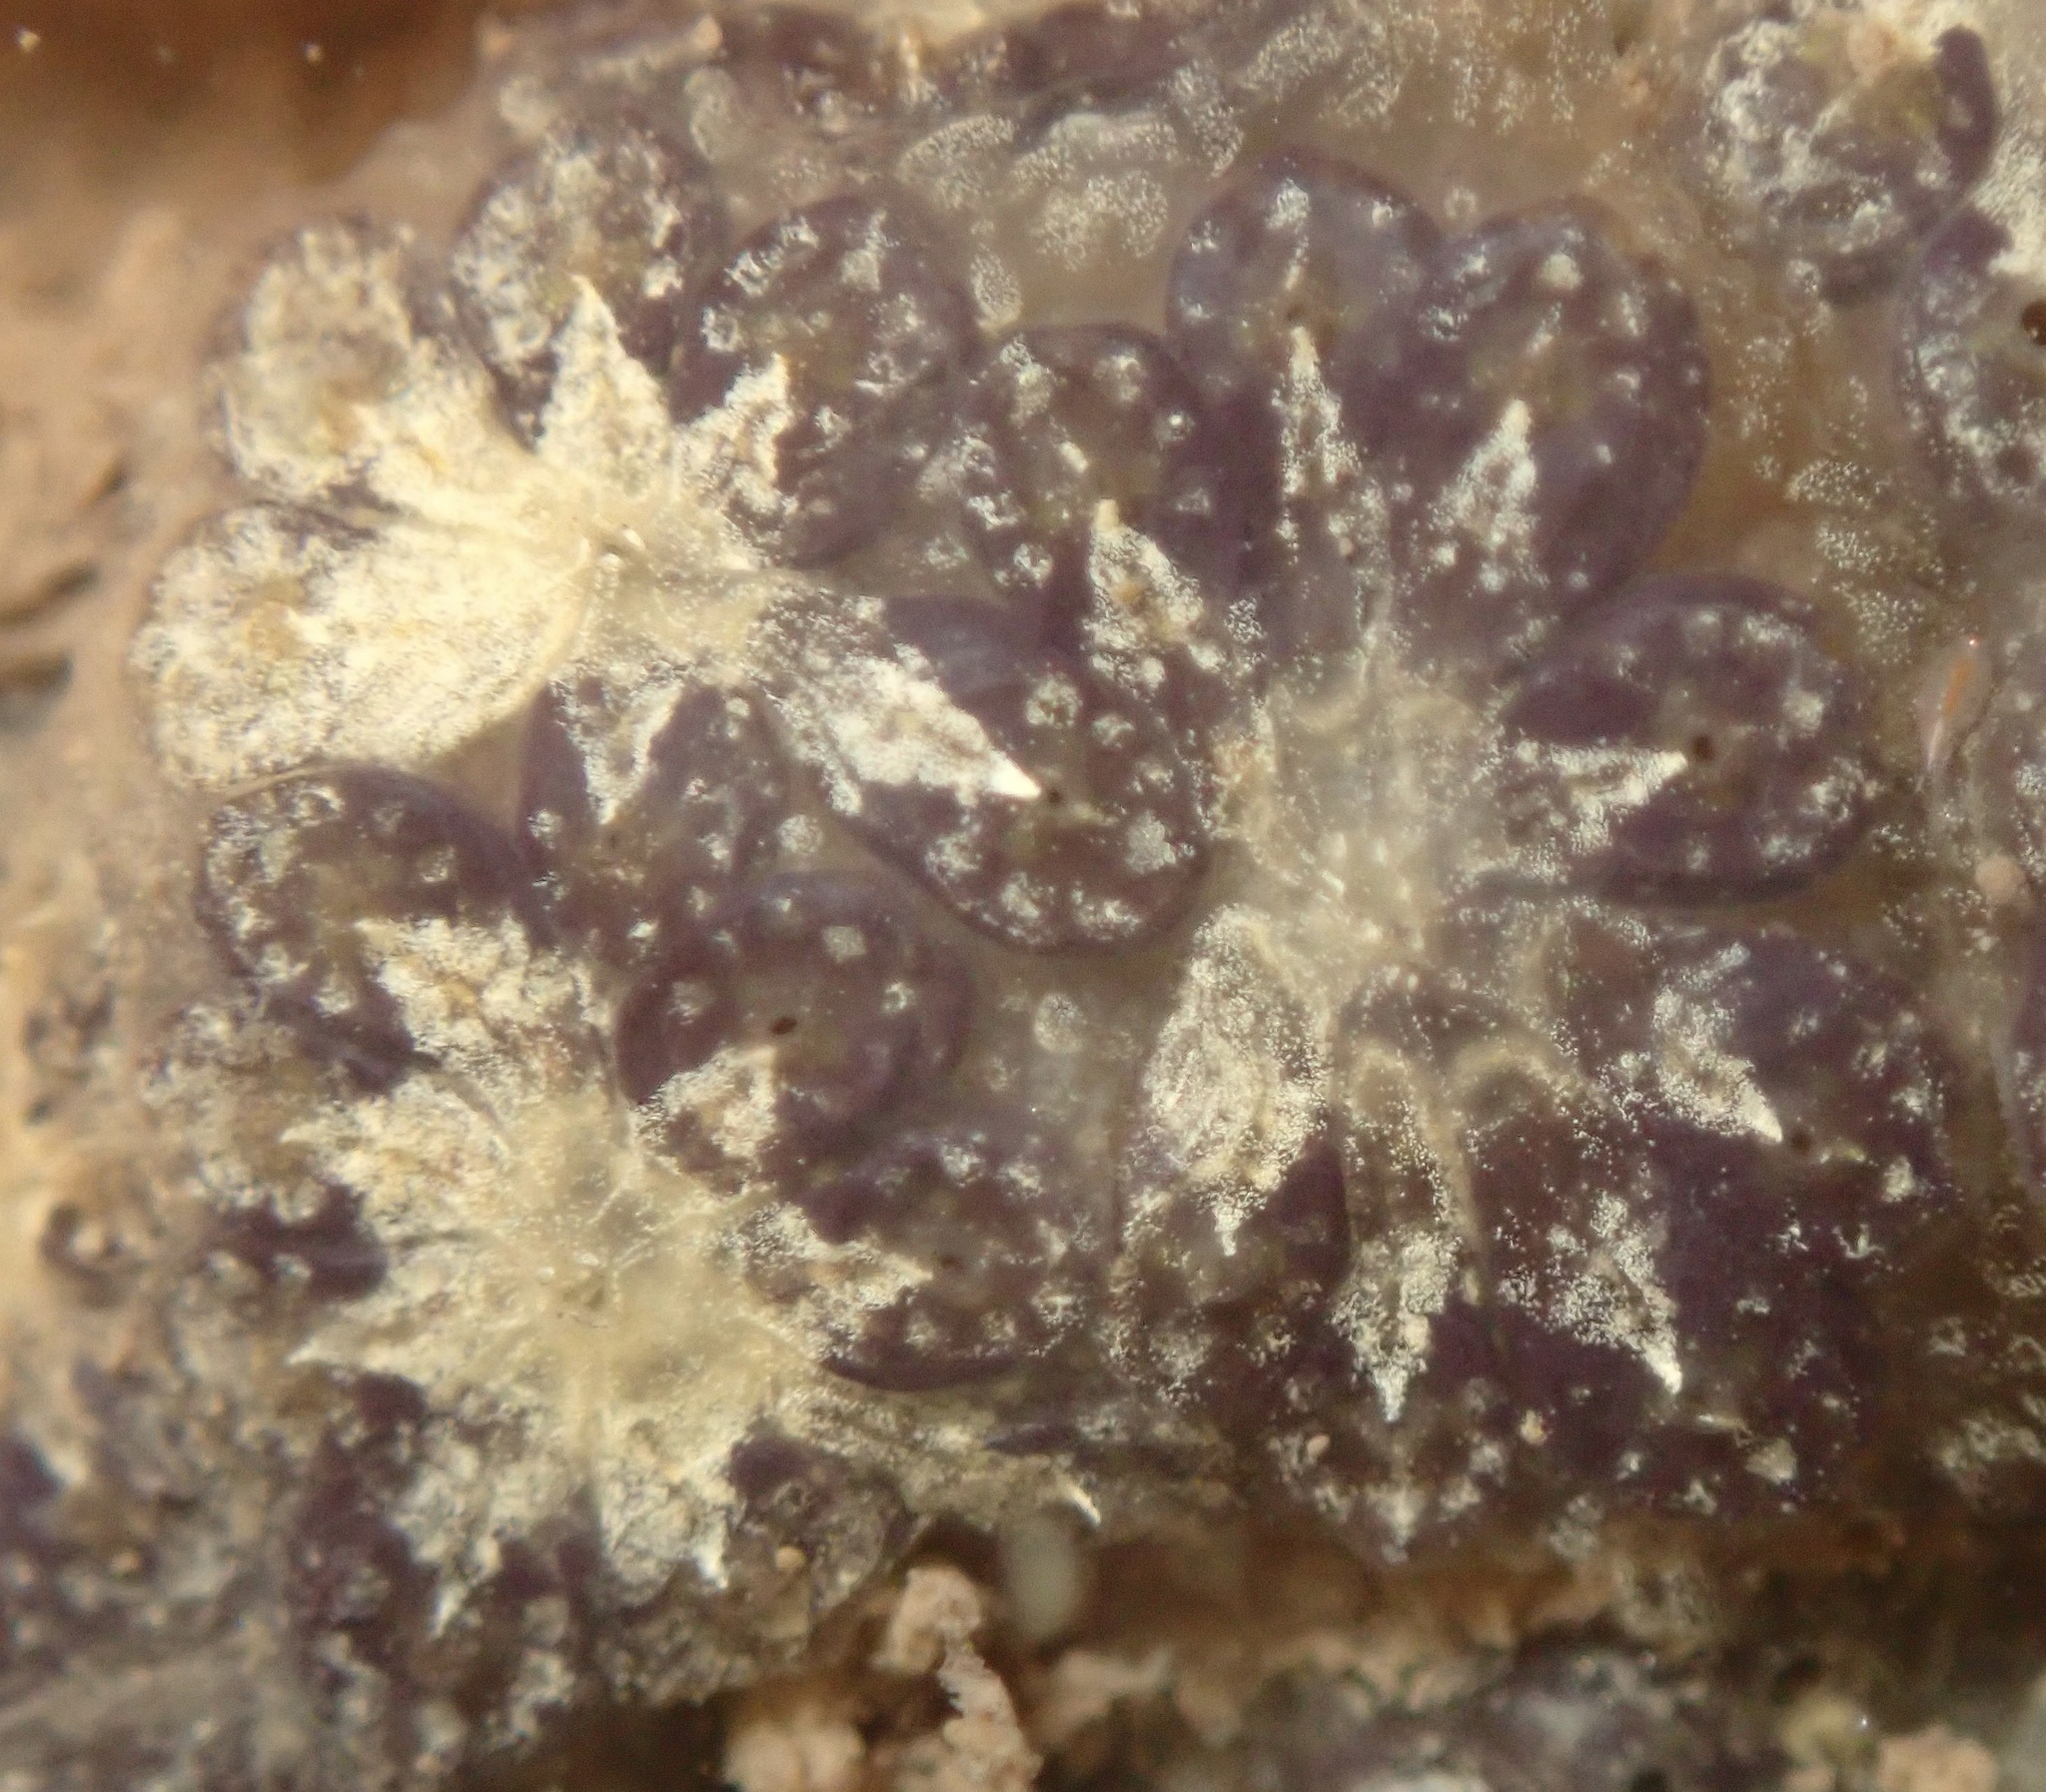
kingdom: Animalia
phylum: Chordata
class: Ascidiacea
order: Stolidobranchia
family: Styelidae
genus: Botryllus
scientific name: Botryllus schlosseri
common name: Golden star tunicate
